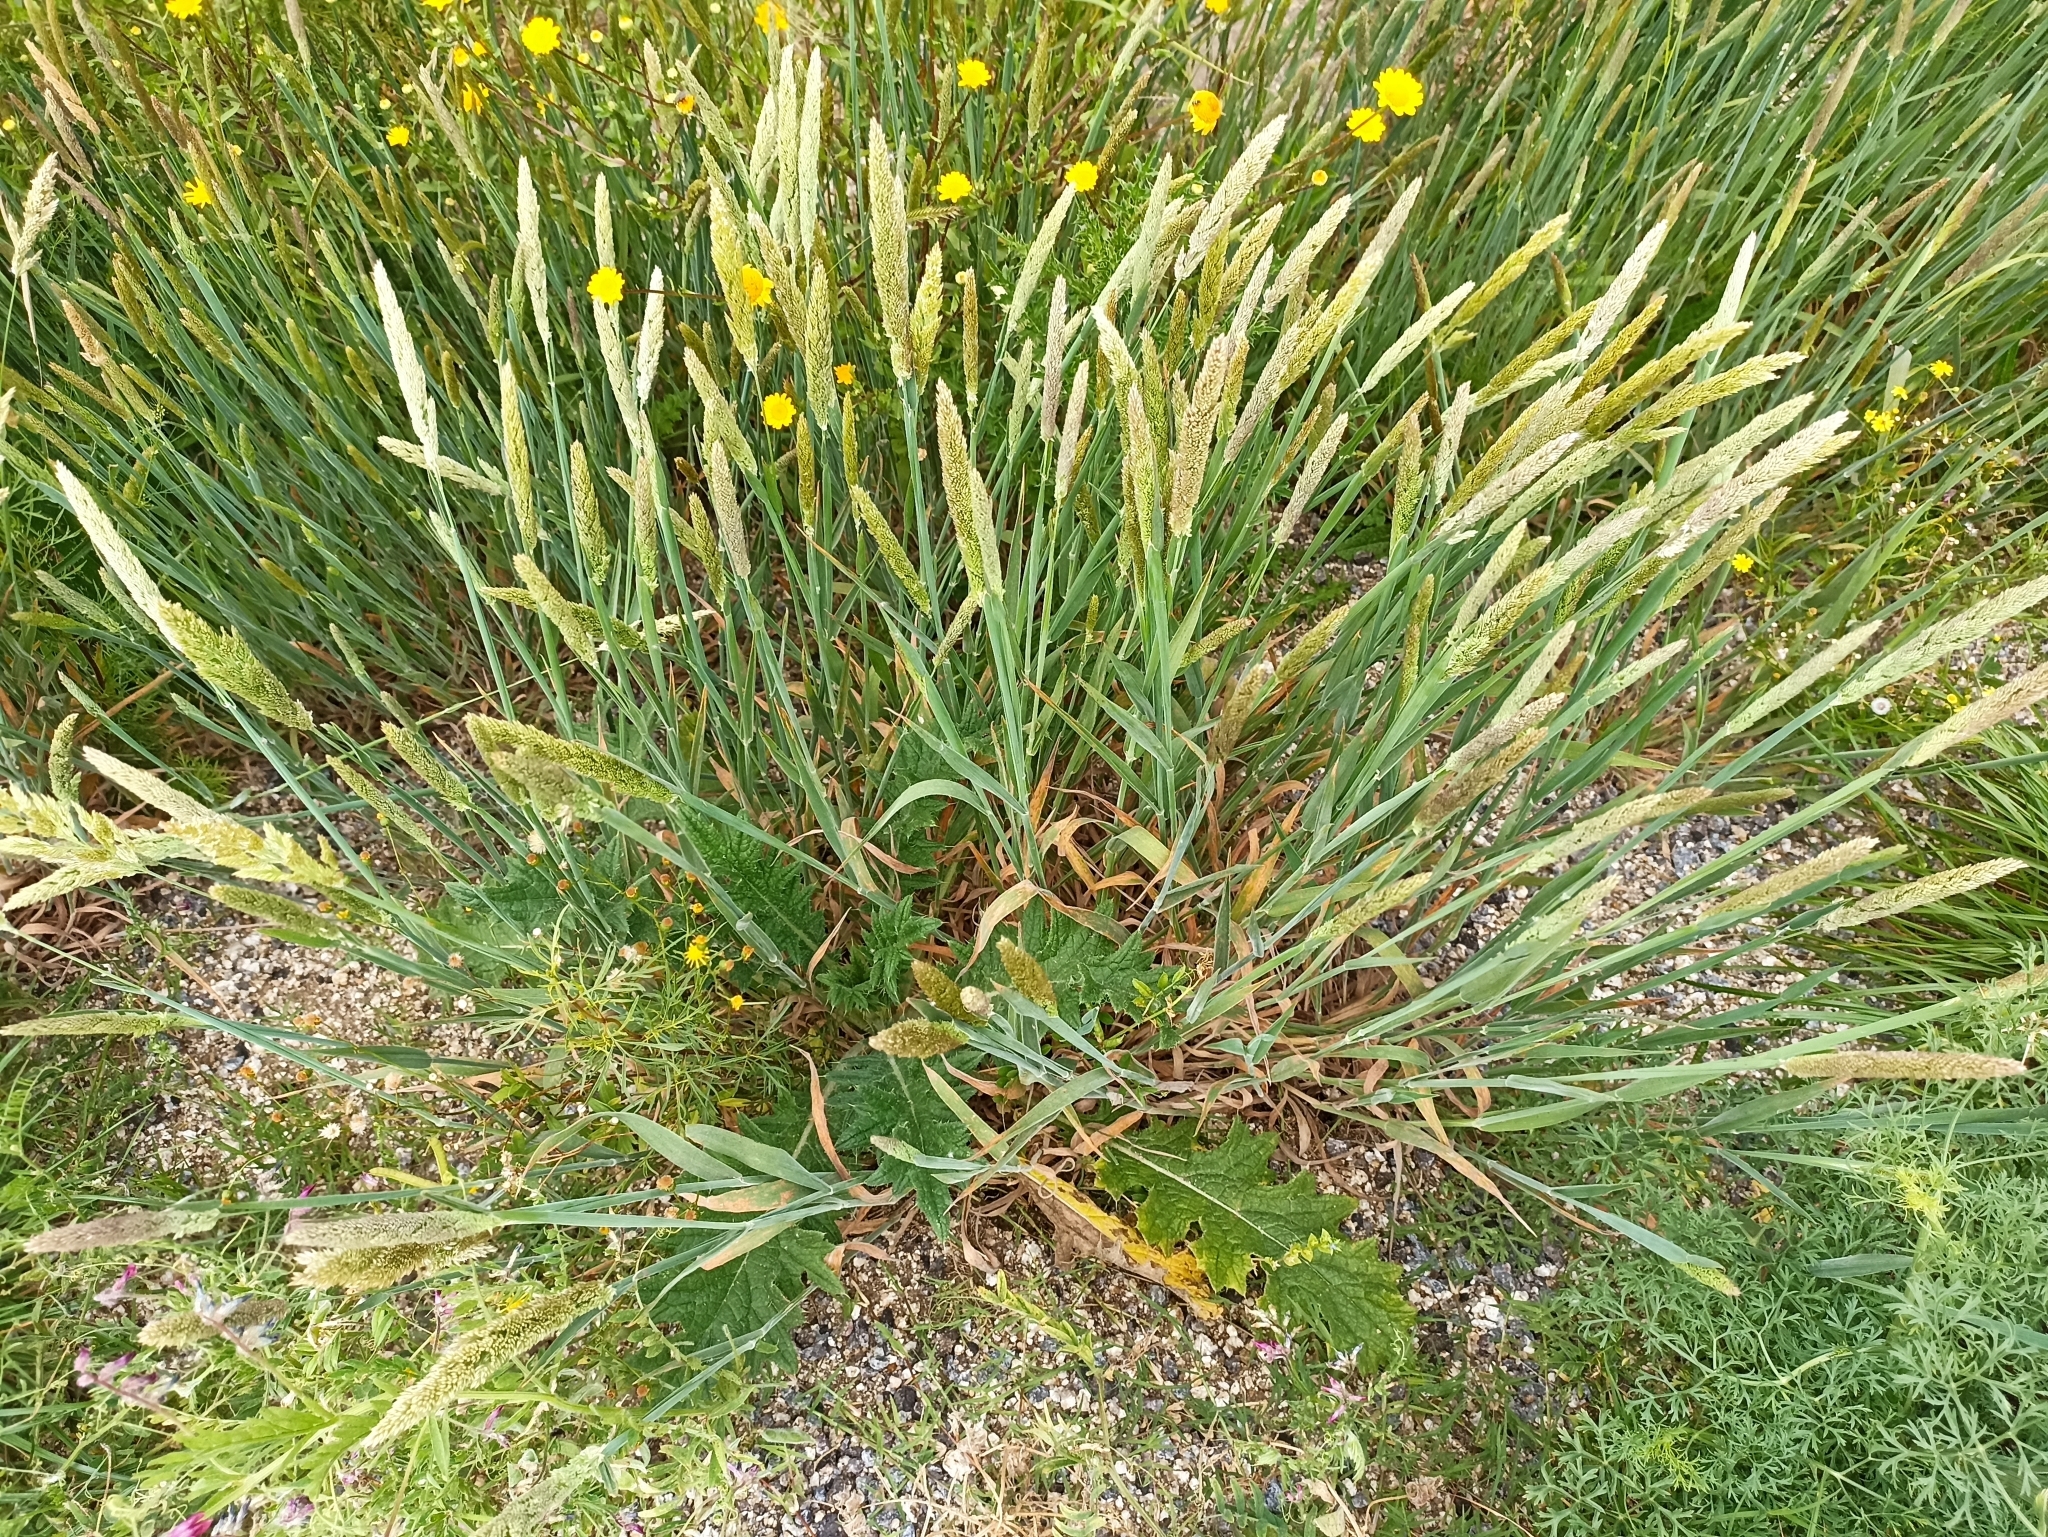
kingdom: Plantae
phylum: Tracheophyta
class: Liliopsida
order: Poales
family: Poaceae
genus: Holcus
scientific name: Holcus lanatus
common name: Yorkshire-fog
